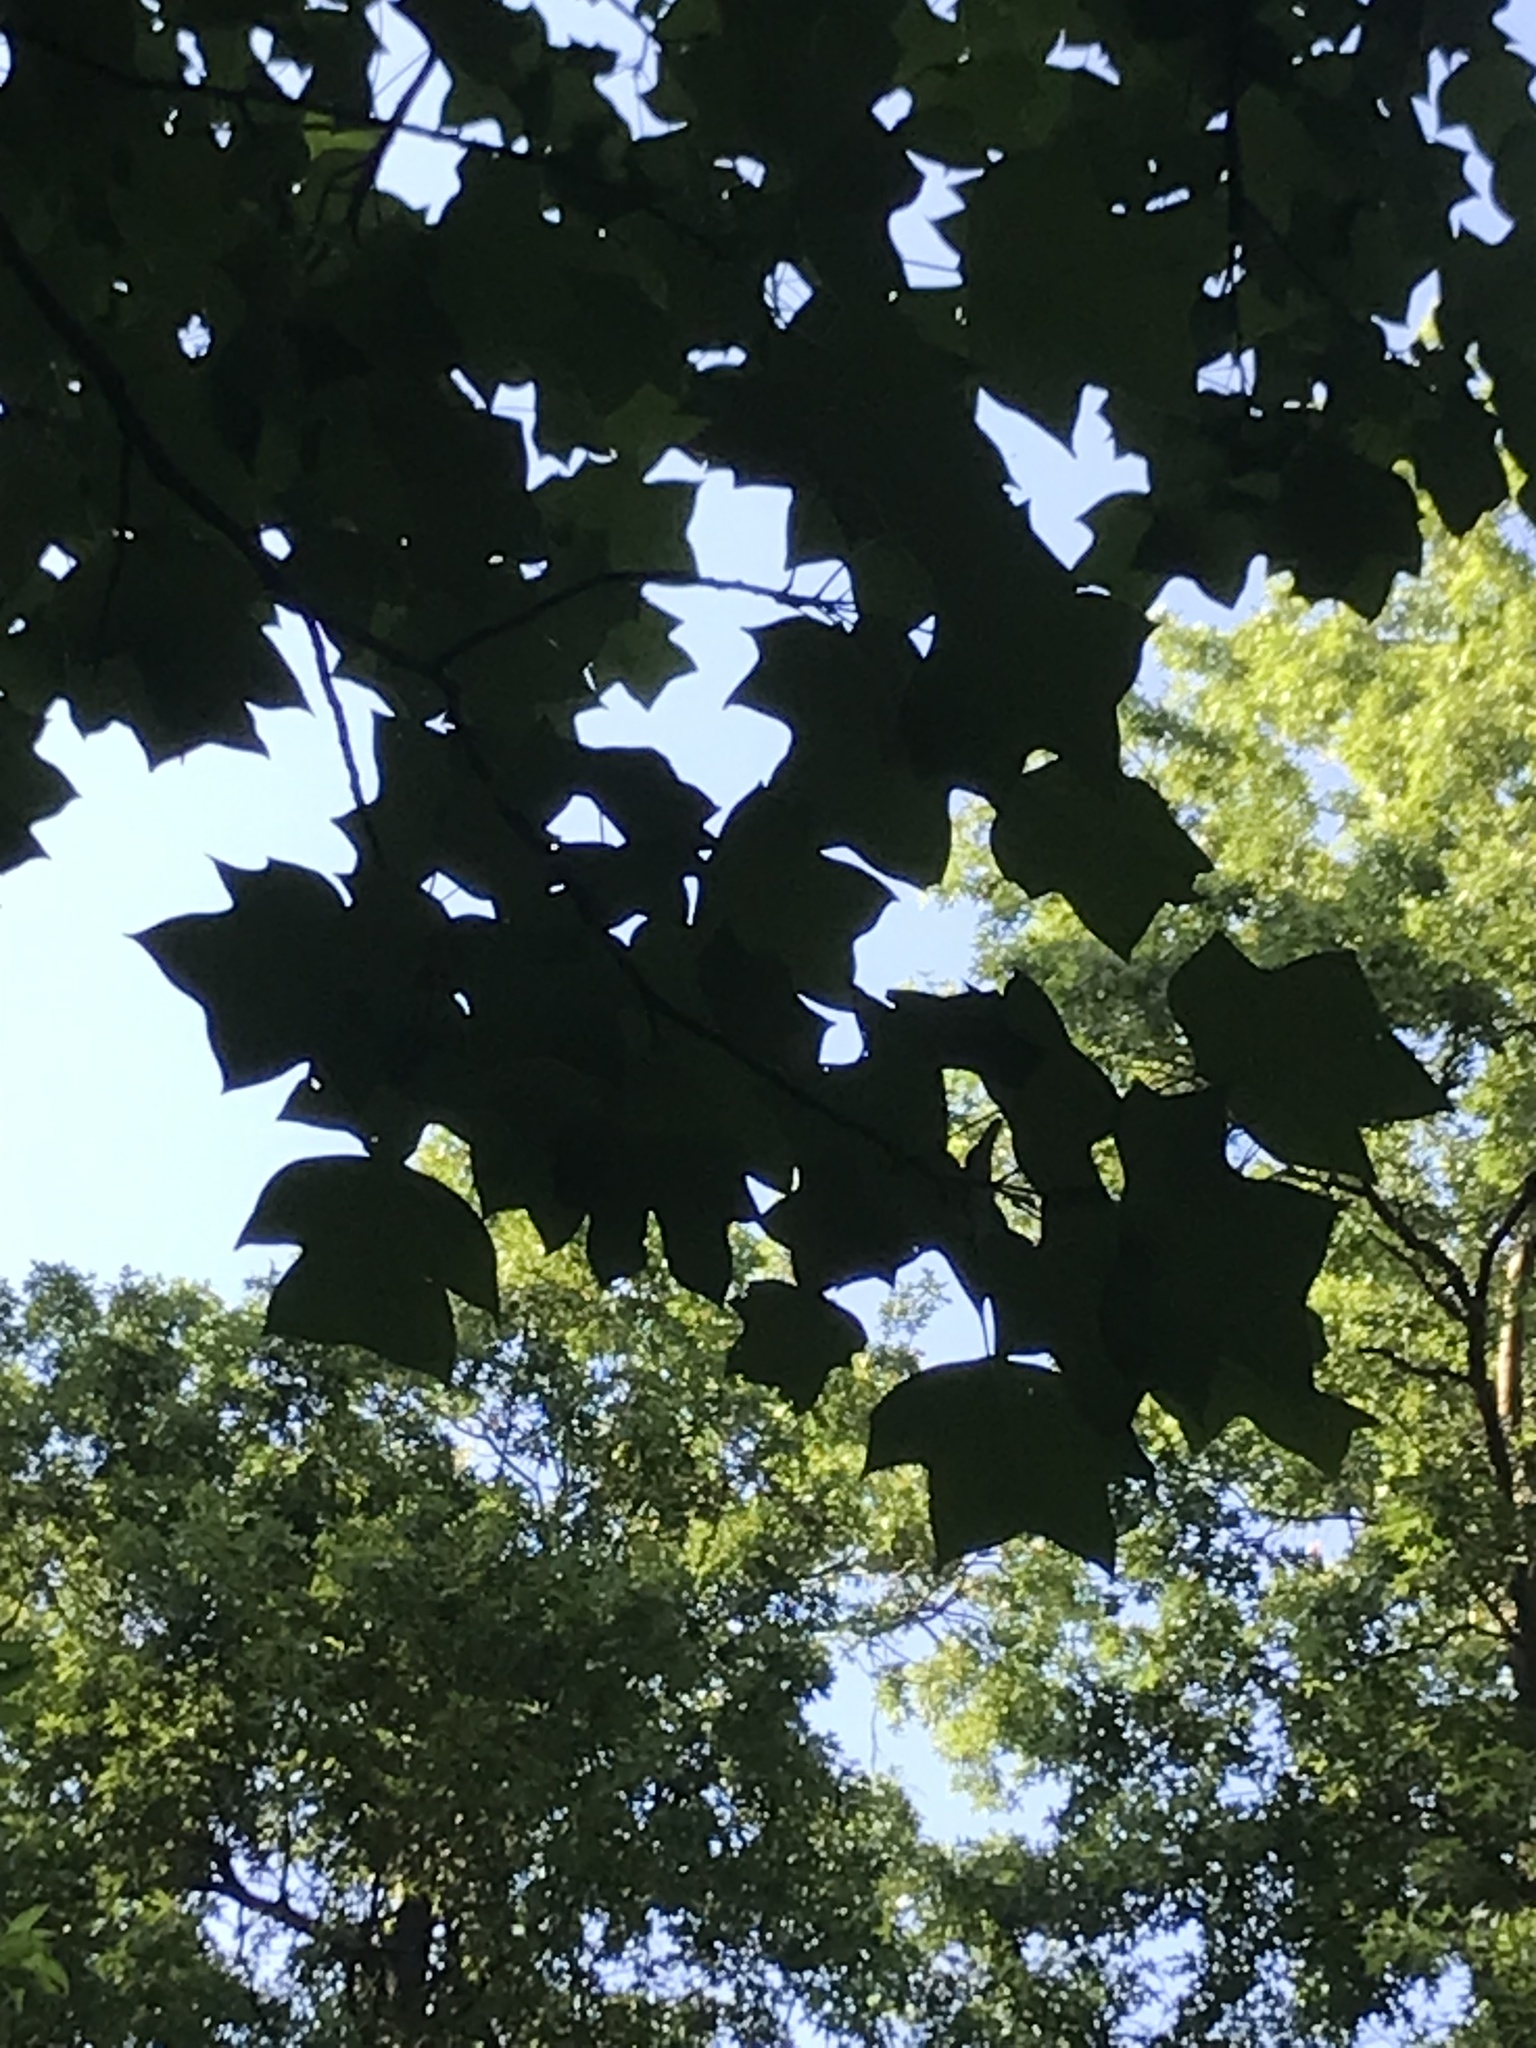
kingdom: Plantae
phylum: Tracheophyta
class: Magnoliopsida
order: Magnoliales
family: Magnoliaceae
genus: Liriodendron
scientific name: Liriodendron tulipifera
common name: Tulip tree
